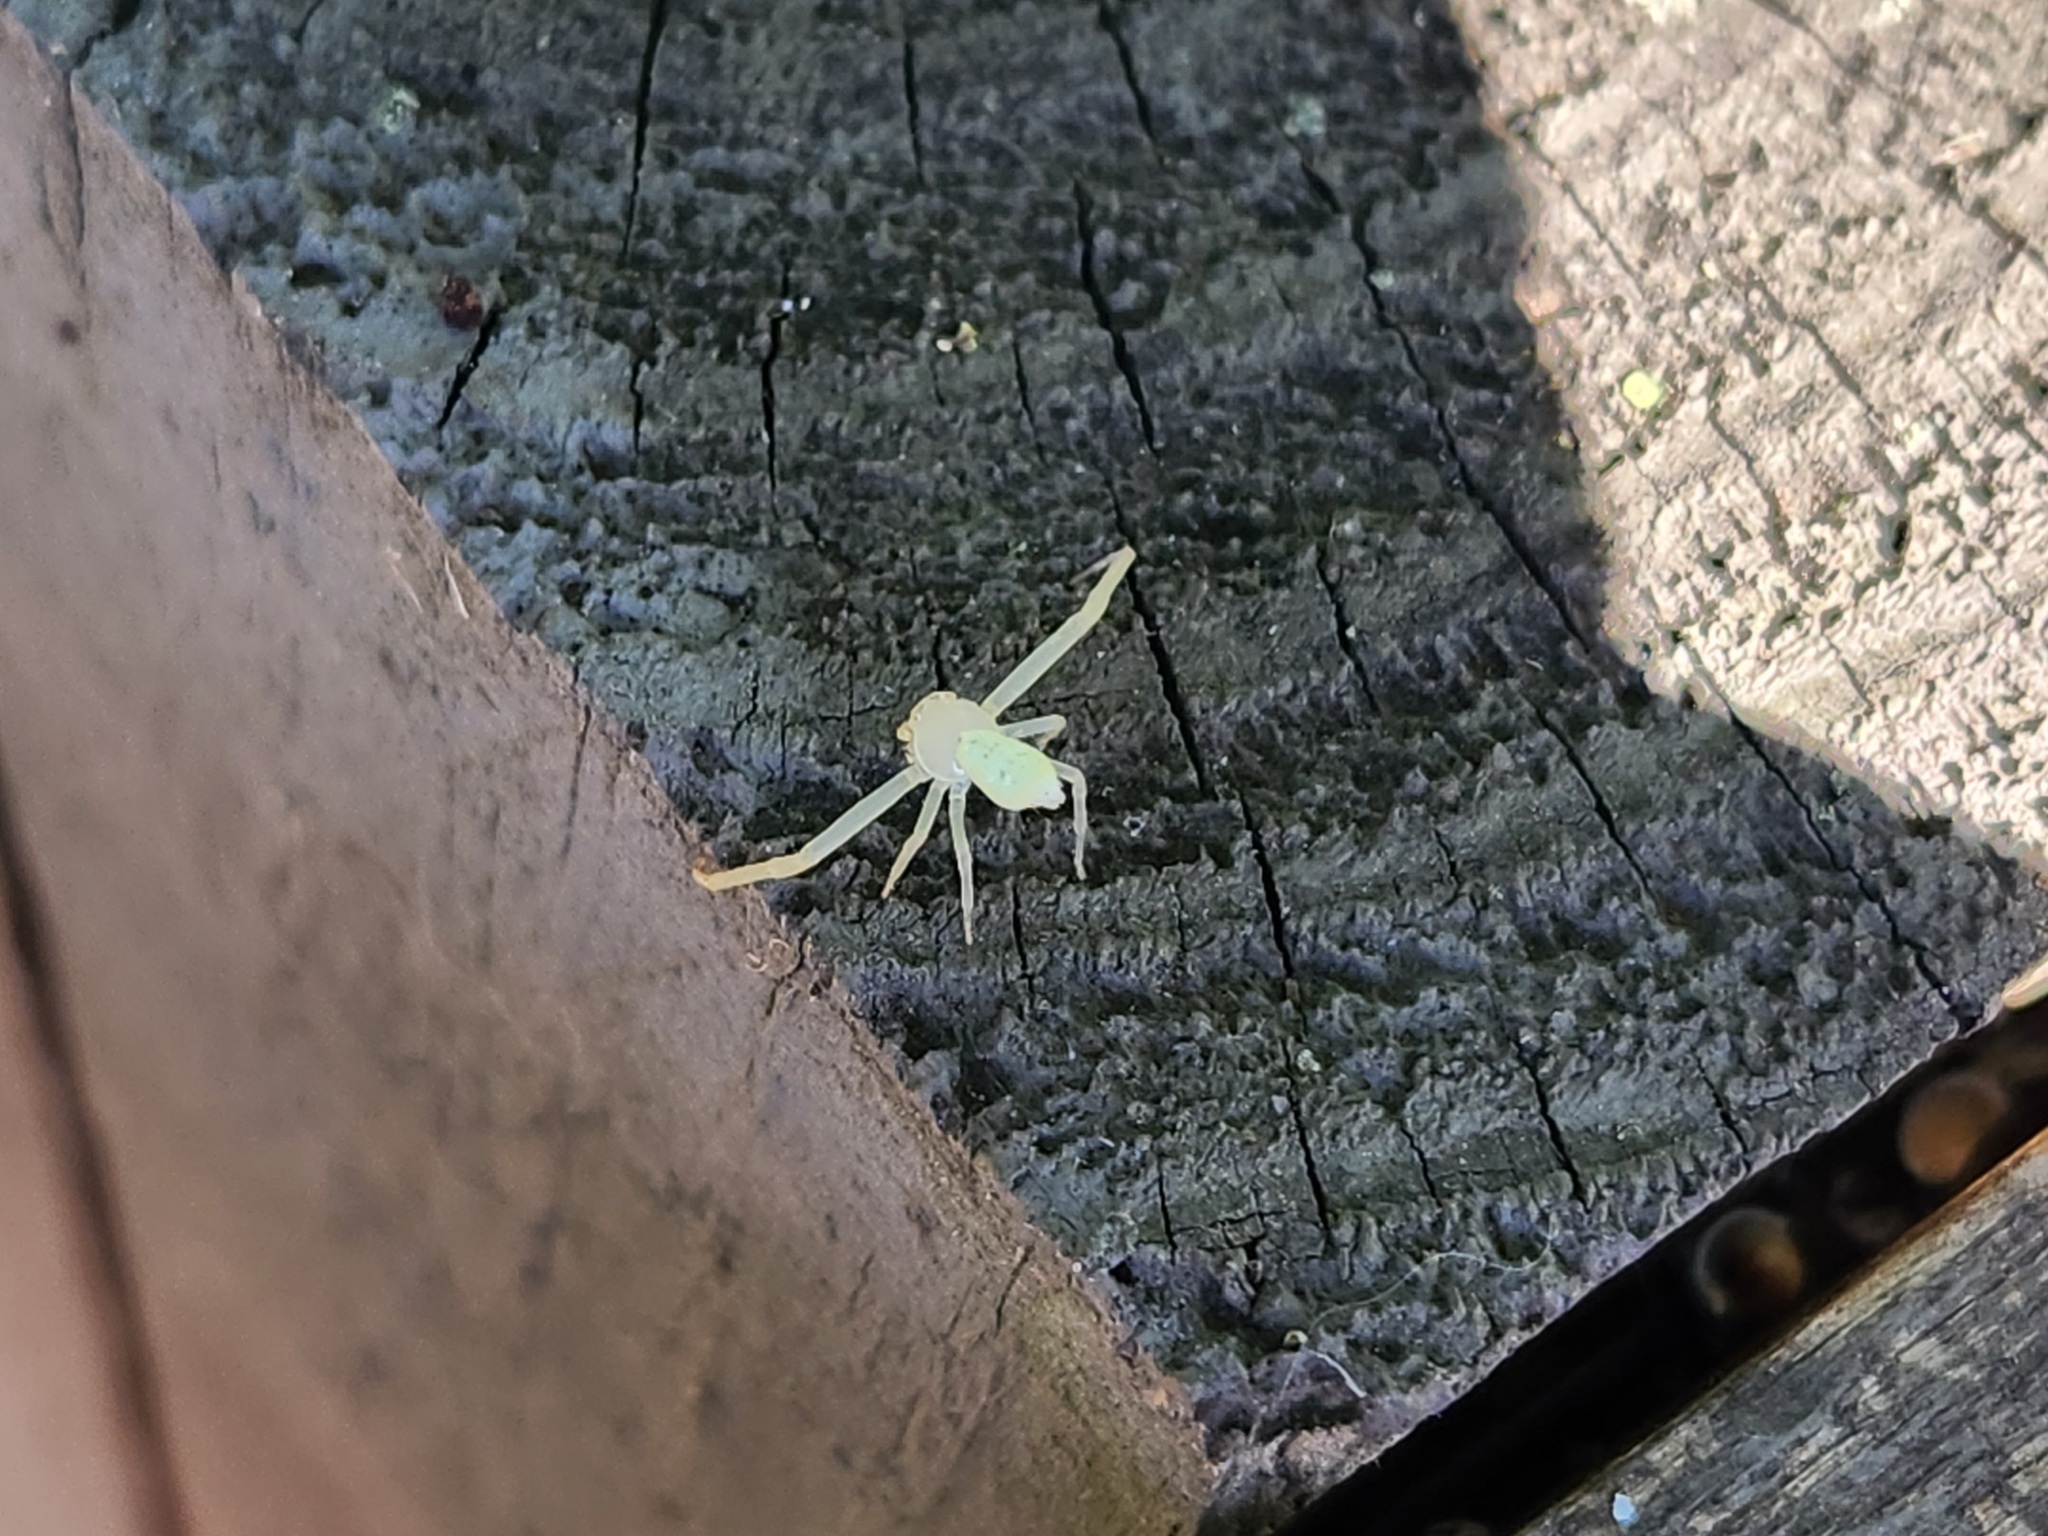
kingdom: Animalia
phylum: Arthropoda
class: Arachnida
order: Araneae
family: Thomisidae
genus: Misumessus
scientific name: Misumessus oblongus
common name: American green crab spider
